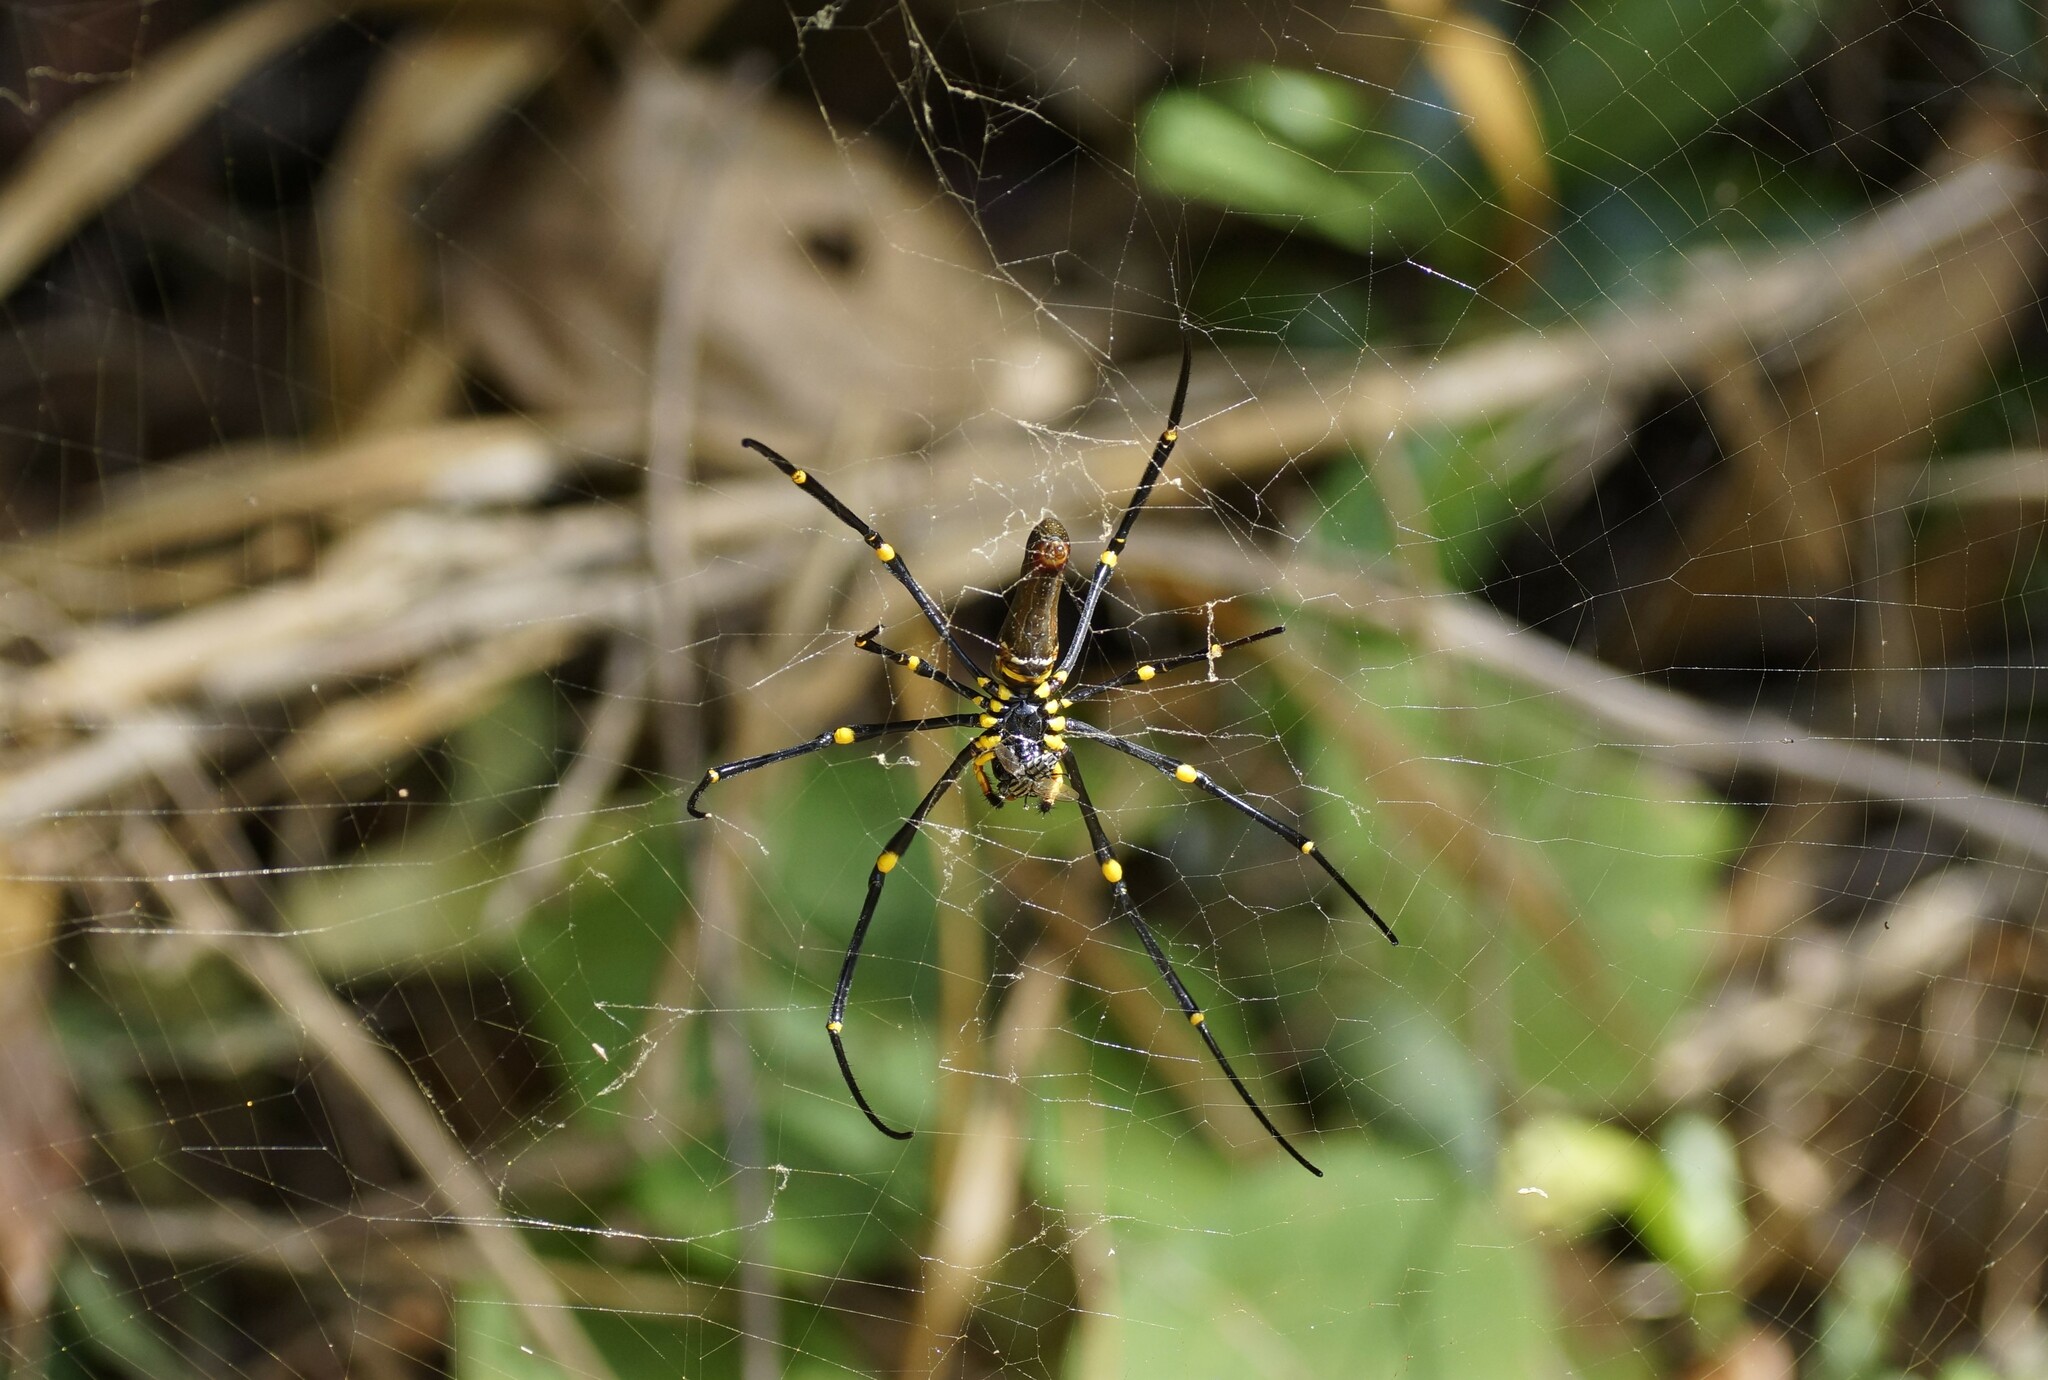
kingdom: Animalia
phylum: Arthropoda
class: Arachnida
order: Araneae
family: Araneidae
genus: Nephila
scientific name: Nephila pilipes
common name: Giant golden orb weaver
